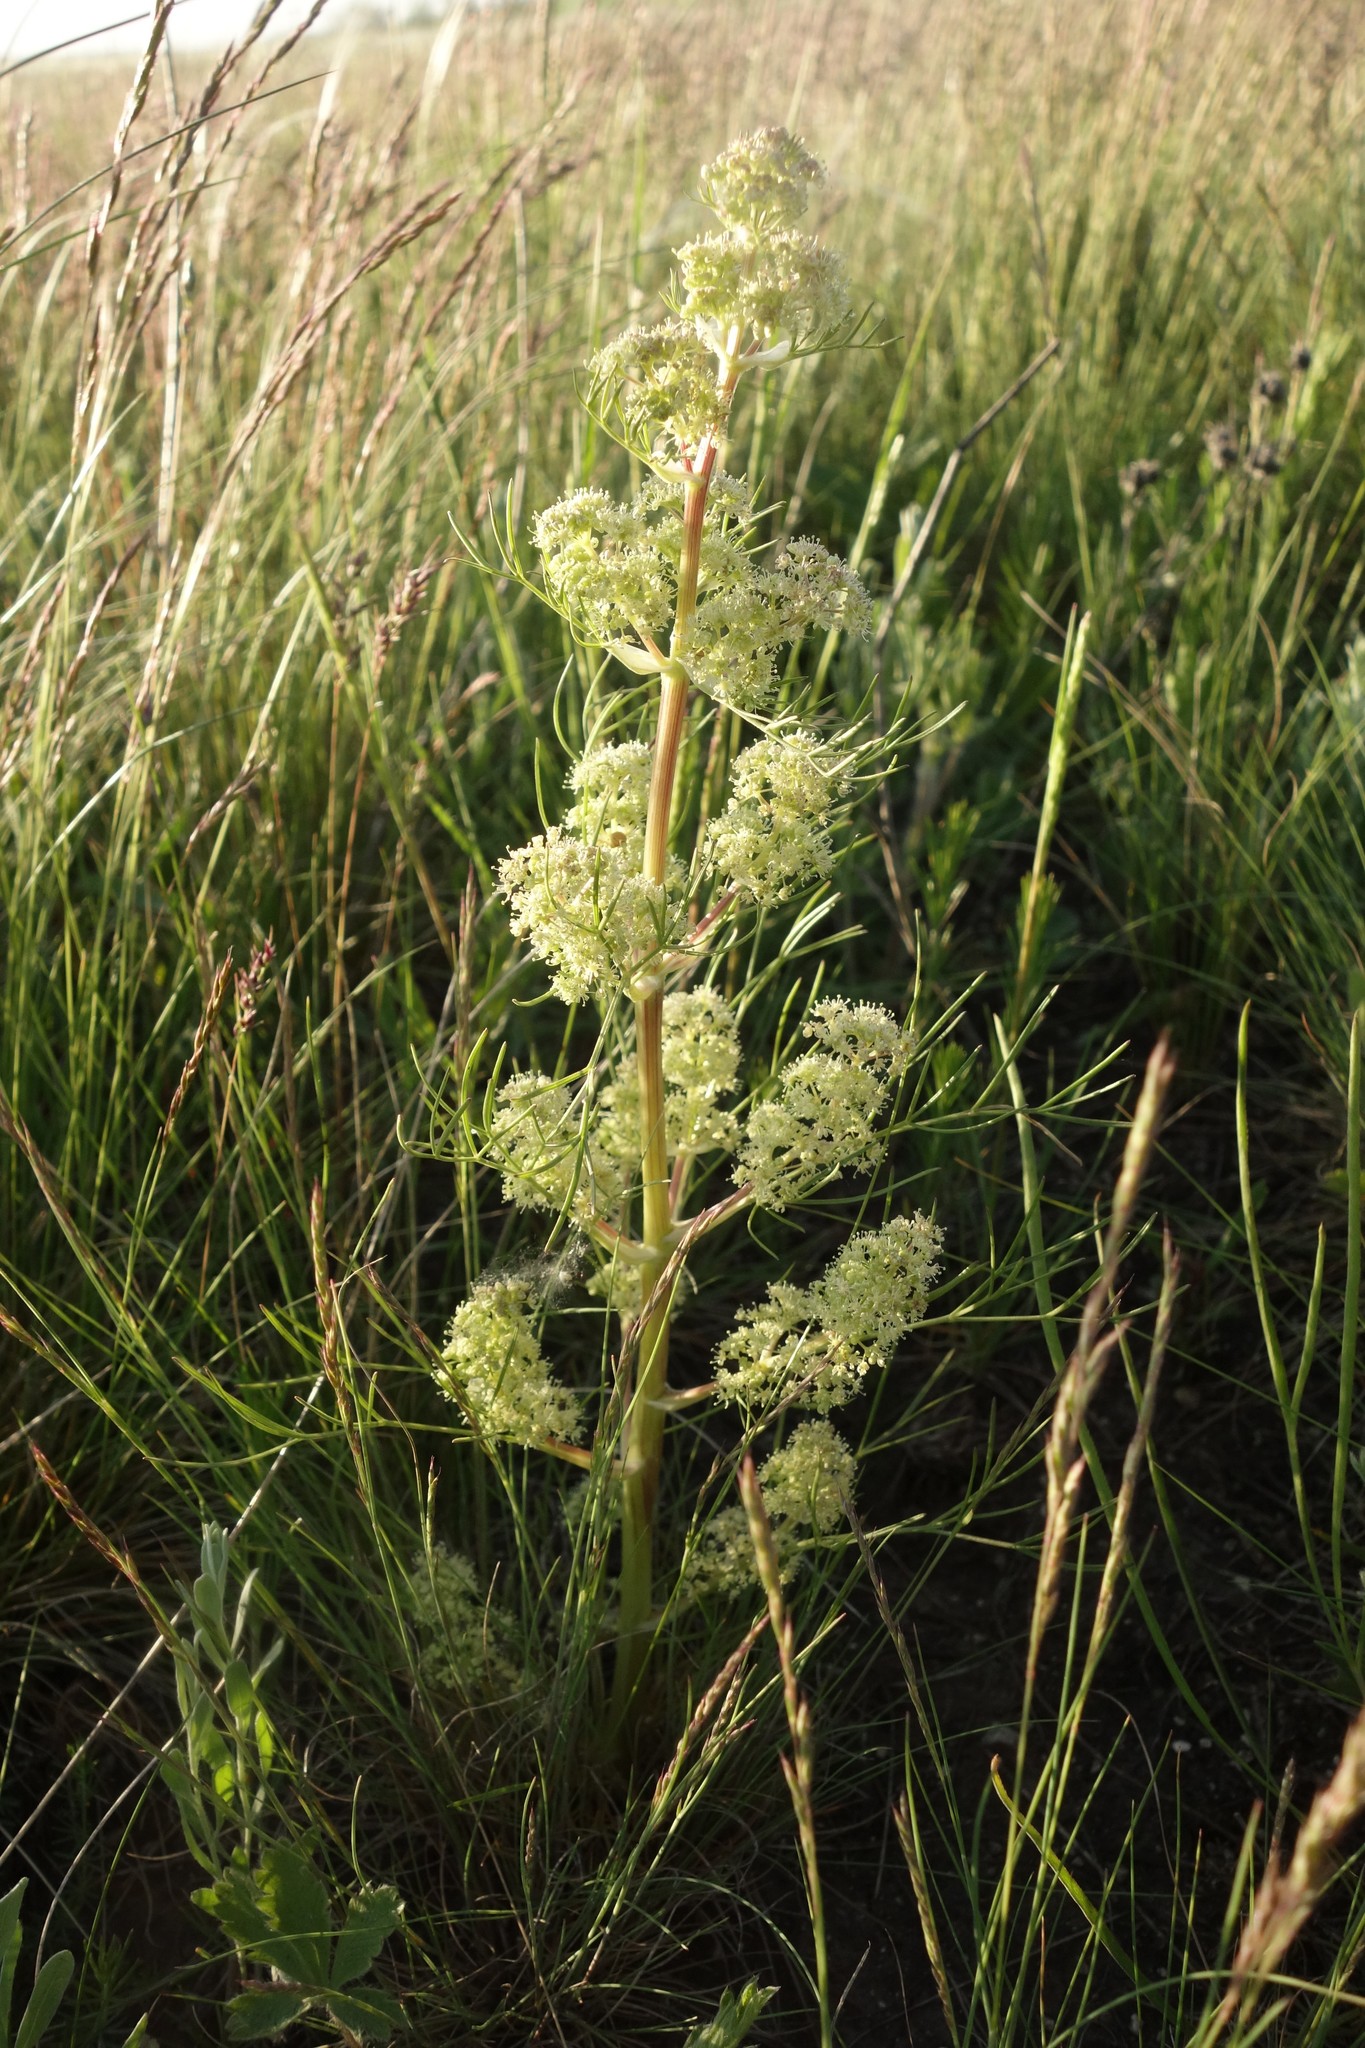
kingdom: Plantae
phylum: Tracheophyta
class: Magnoliopsida
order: Apiales
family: Apiaceae
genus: Trinia
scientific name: Trinia multicaulis
